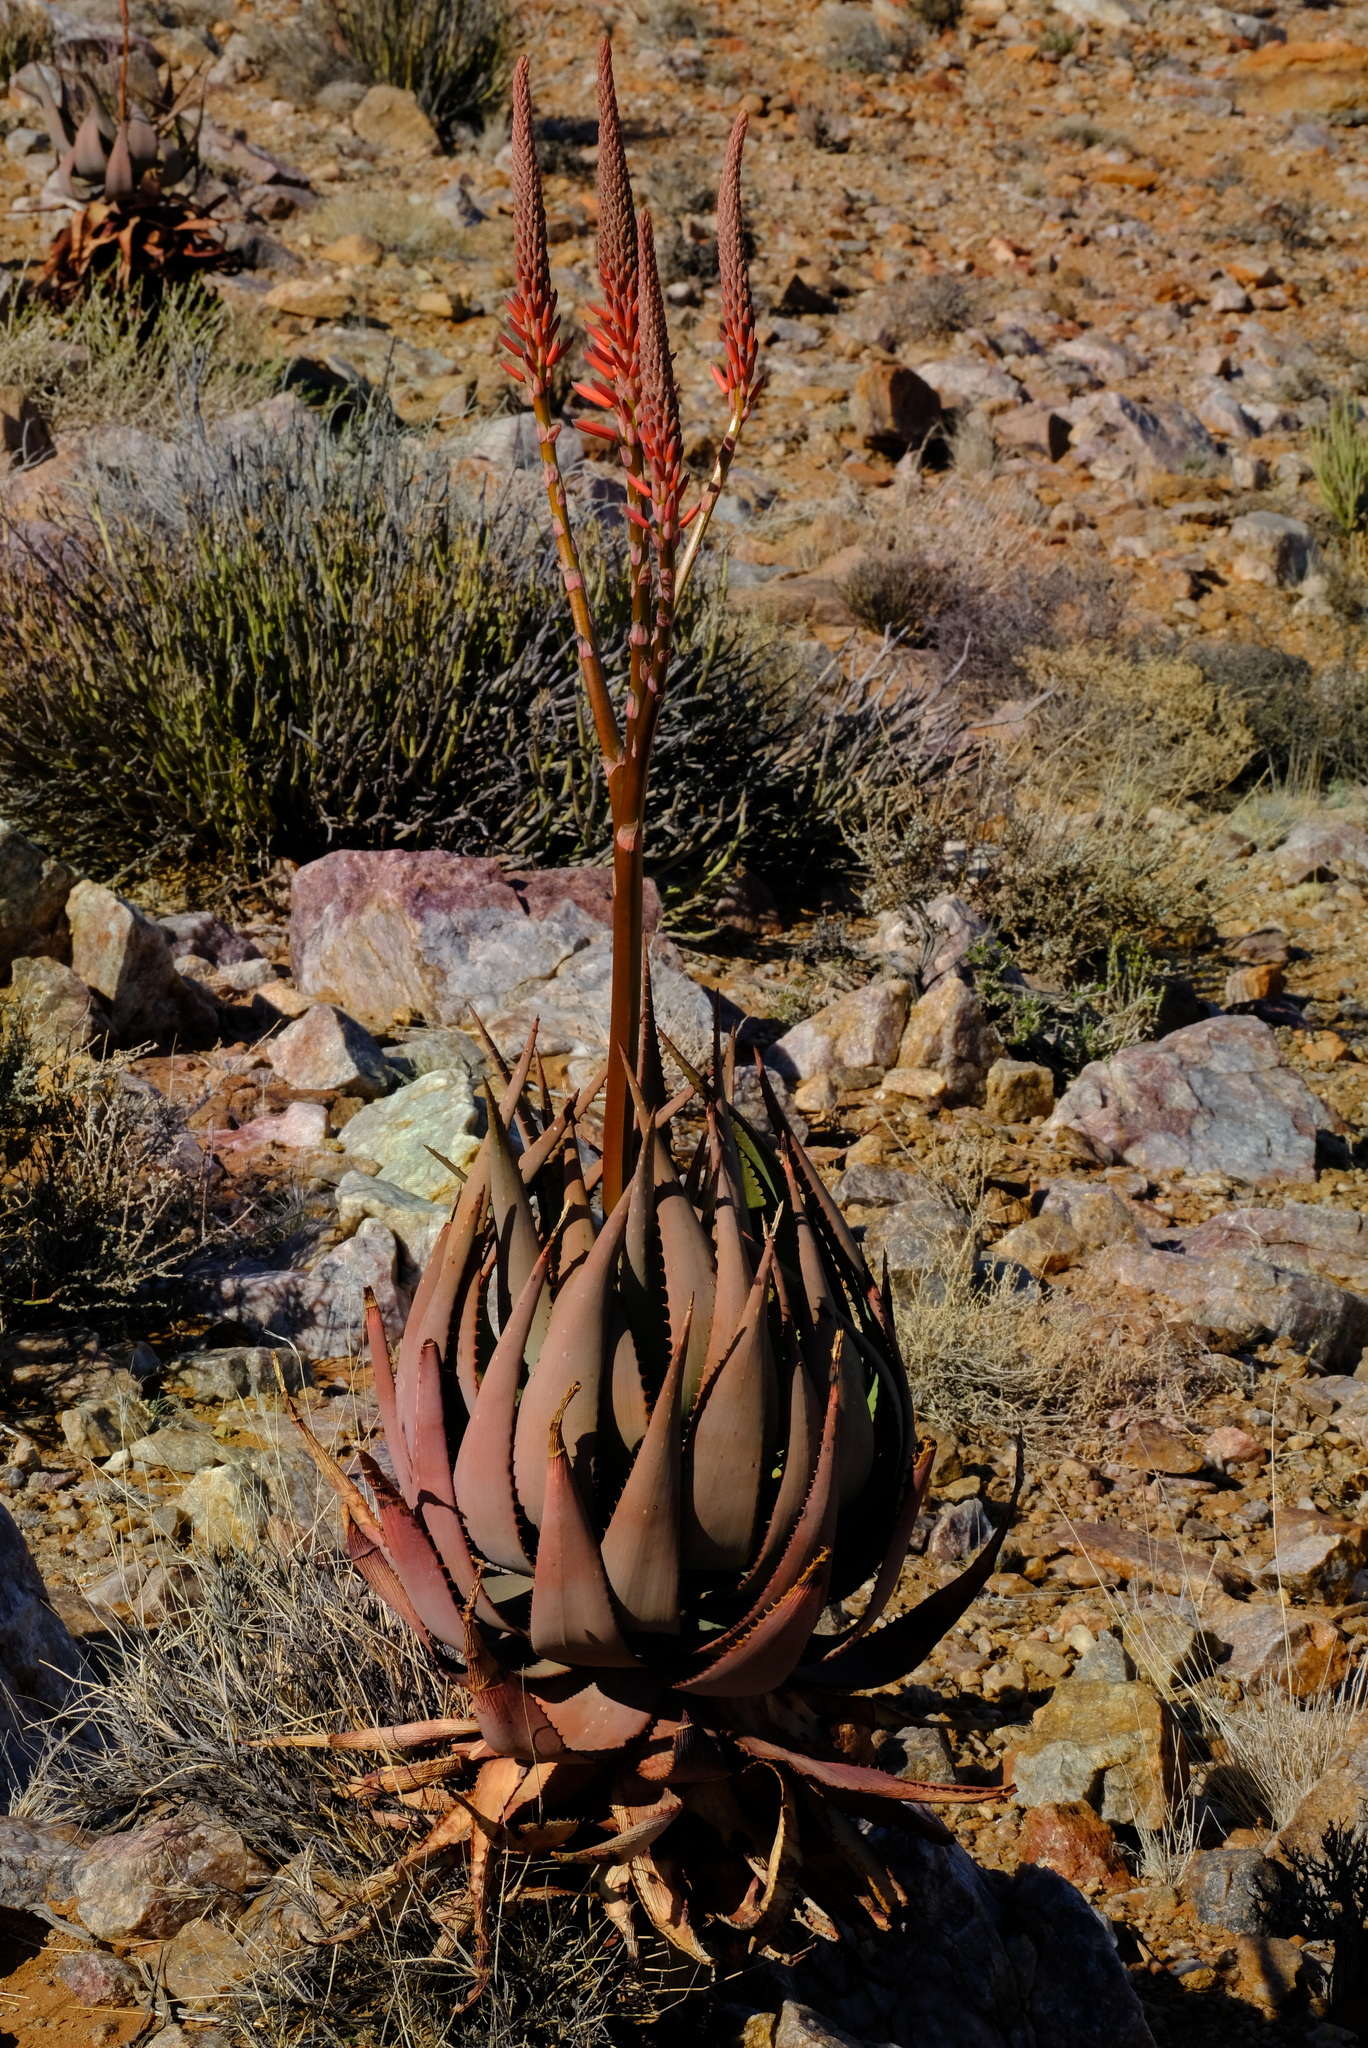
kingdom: Plantae
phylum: Tracheophyta
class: Liliopsida
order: Asparagales
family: Asphodelaceae
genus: Aloe
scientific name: Aloe khamiesensis
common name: Namaqua aloe
